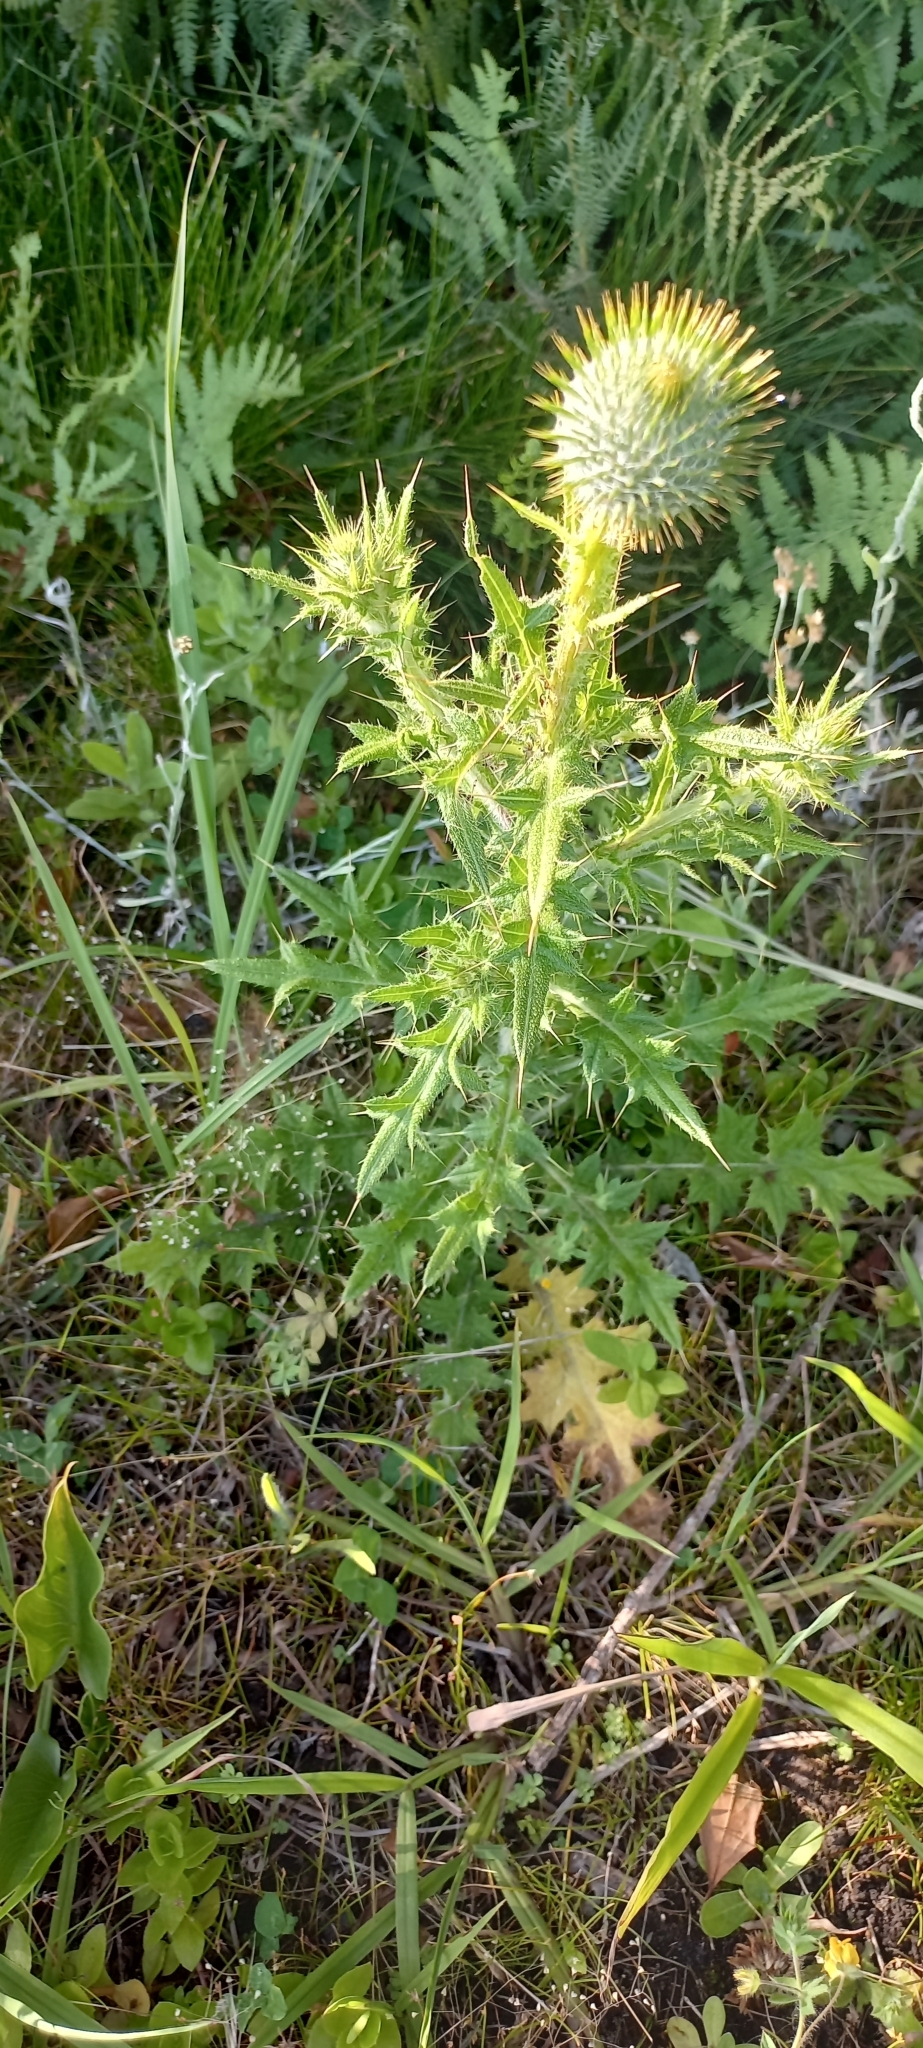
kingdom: Plantae
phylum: Tracheophyta
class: Magnoliopsida
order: Asterales
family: Asteraceae
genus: Cirsium
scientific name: Cirsium vulgare
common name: Bull thistle
